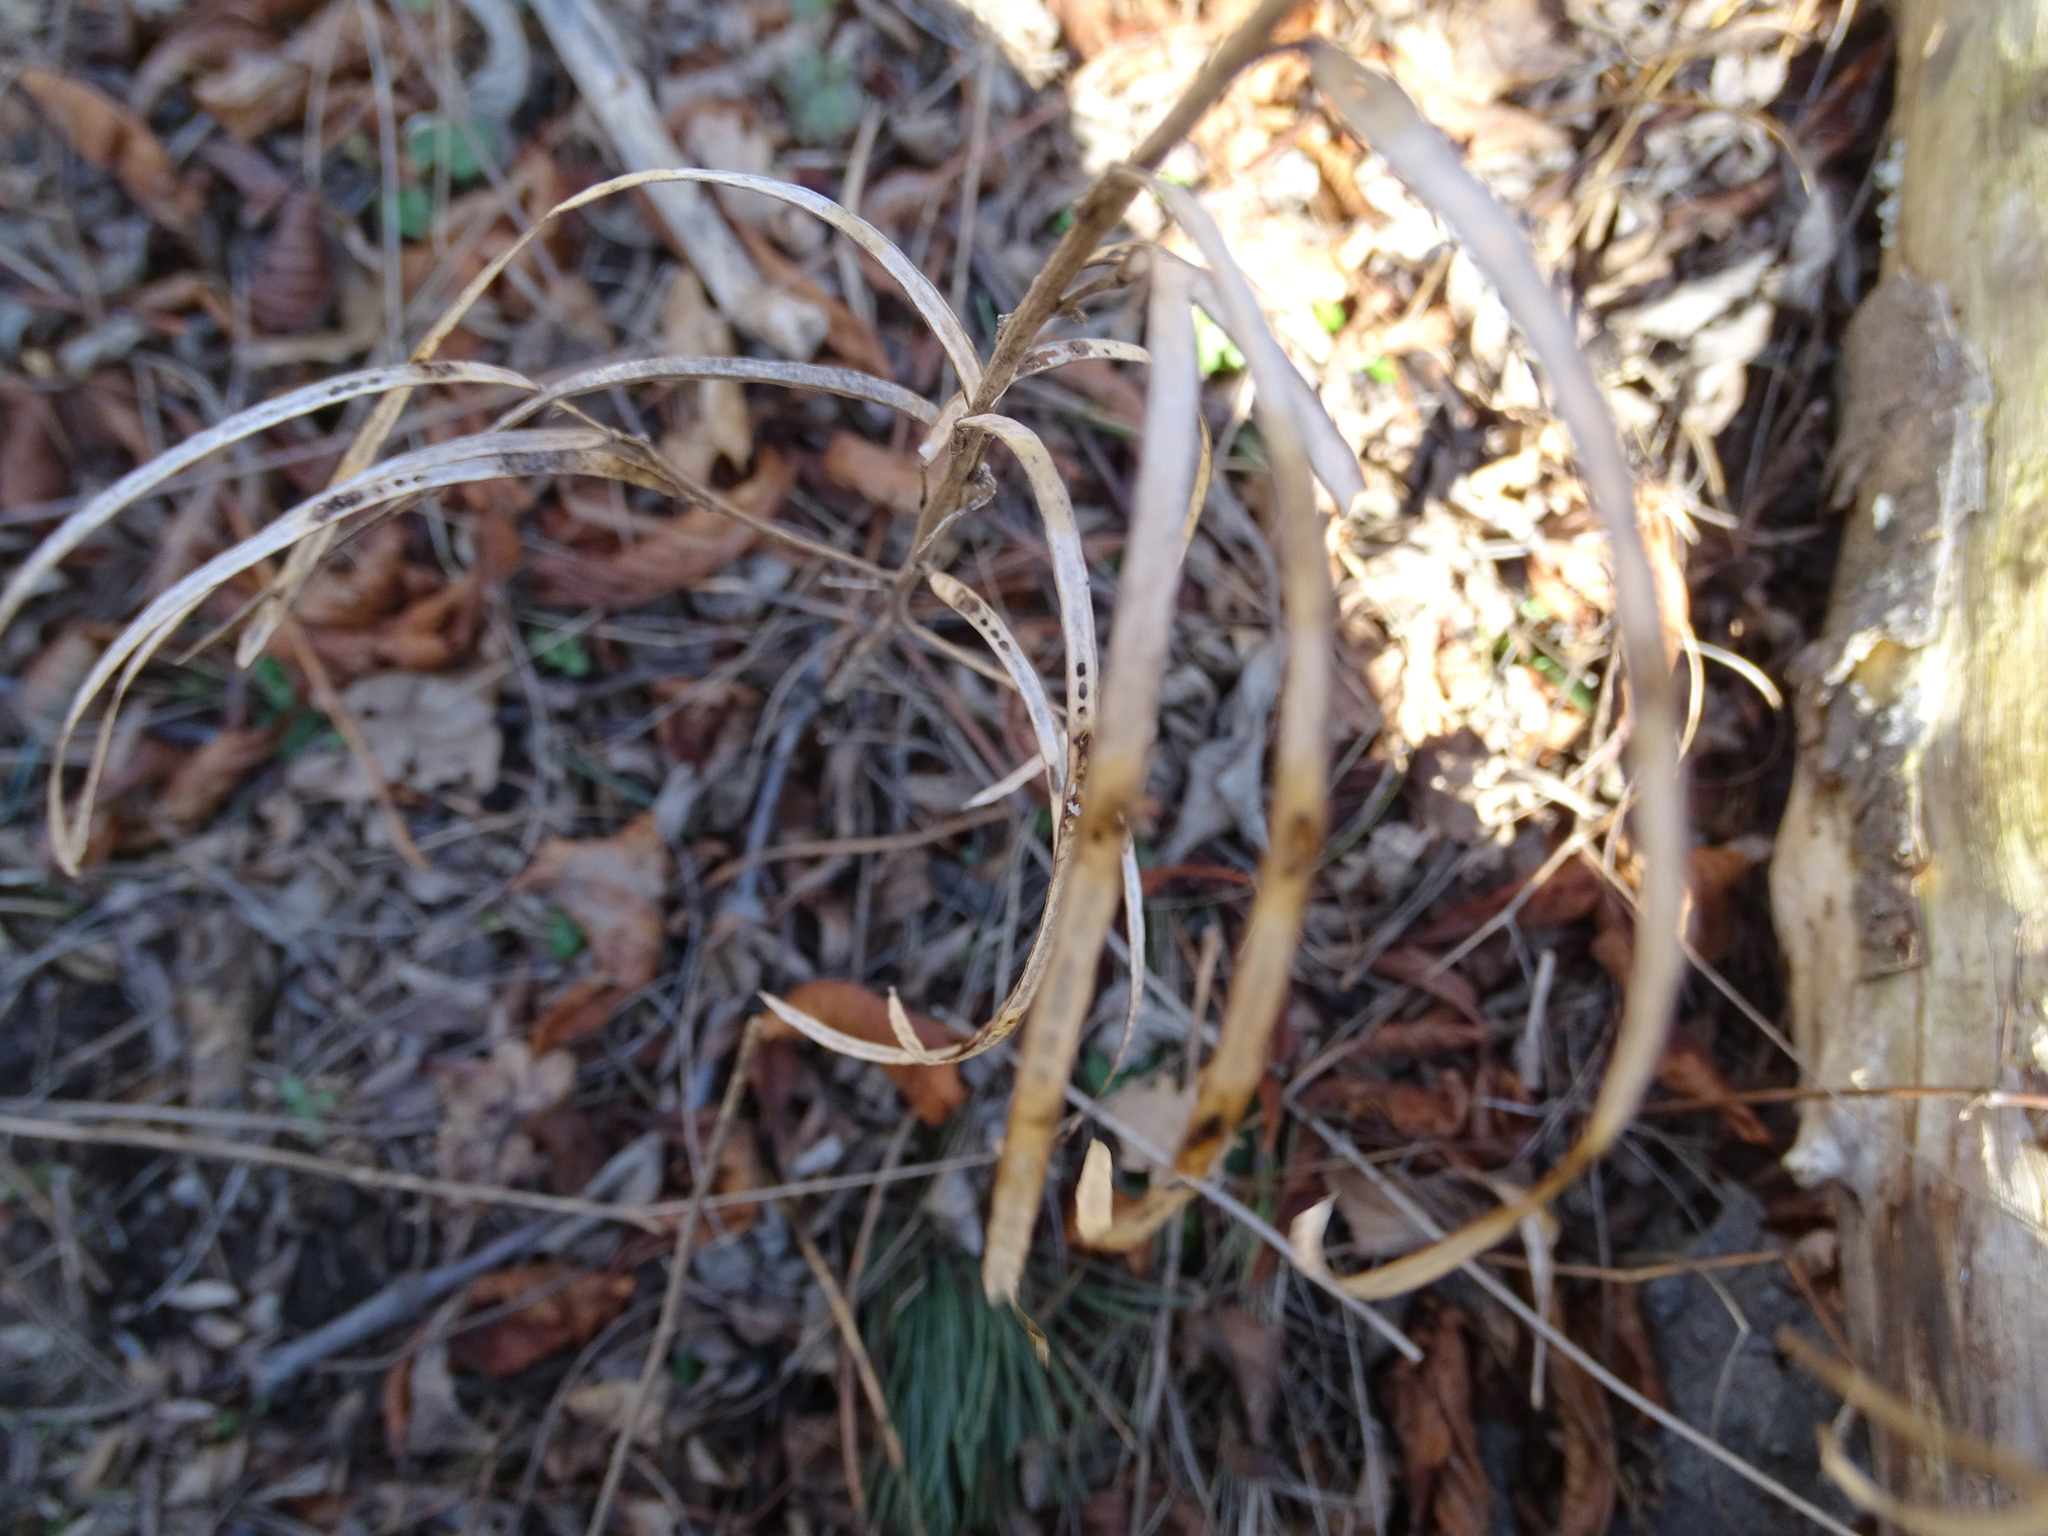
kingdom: Plantae
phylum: Tracheophyta
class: Magnoliopsida
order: Brassicales
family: Brassicaceae
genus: Pseudoturritis
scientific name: Pseudoturritis turrita
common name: Tower cress
